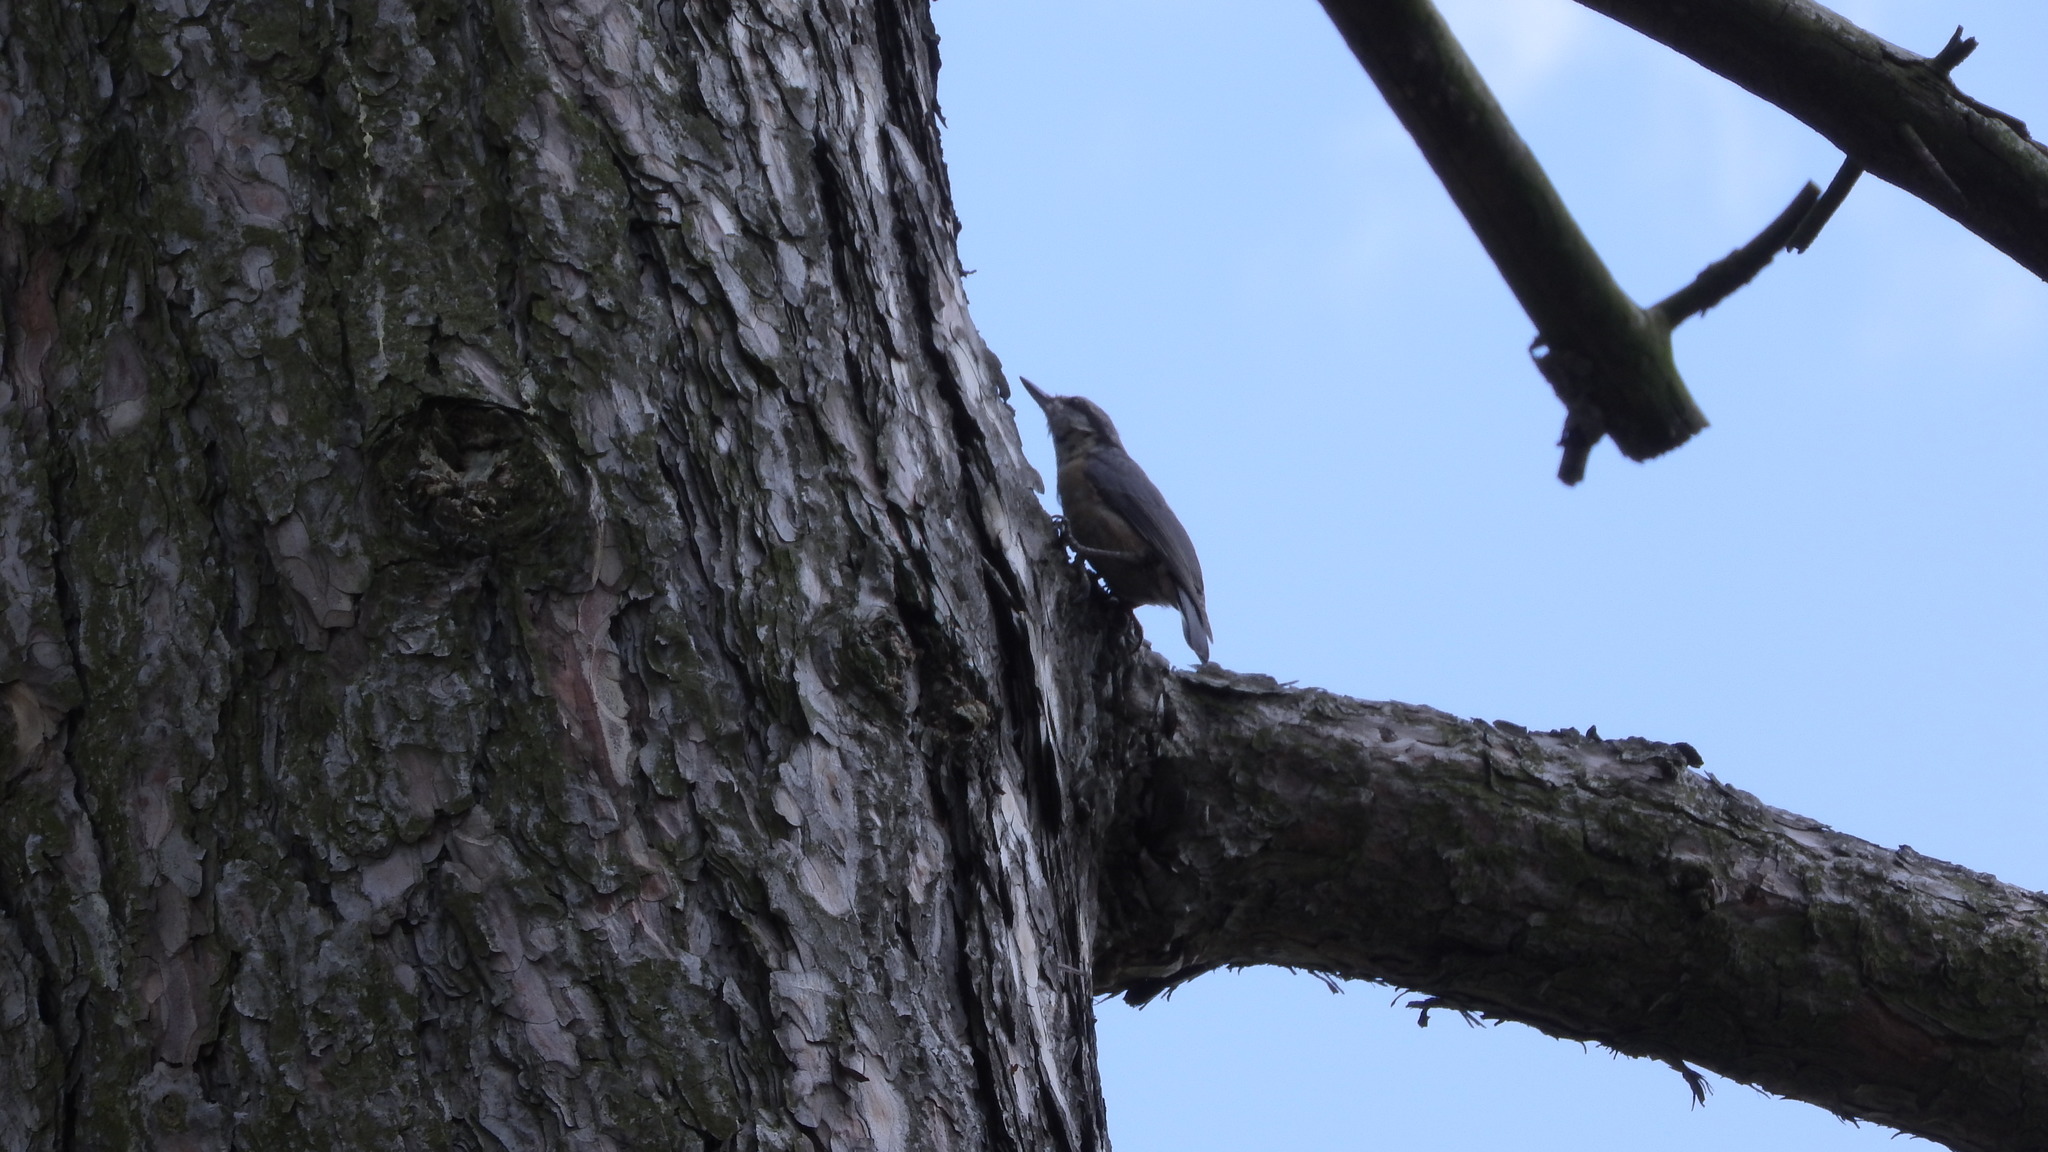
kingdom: Animalia
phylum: Chordata
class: Aves
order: Passeriformes
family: Sittidae
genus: Sitta
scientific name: Sitta europaea
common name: Eurasian nuthatch
